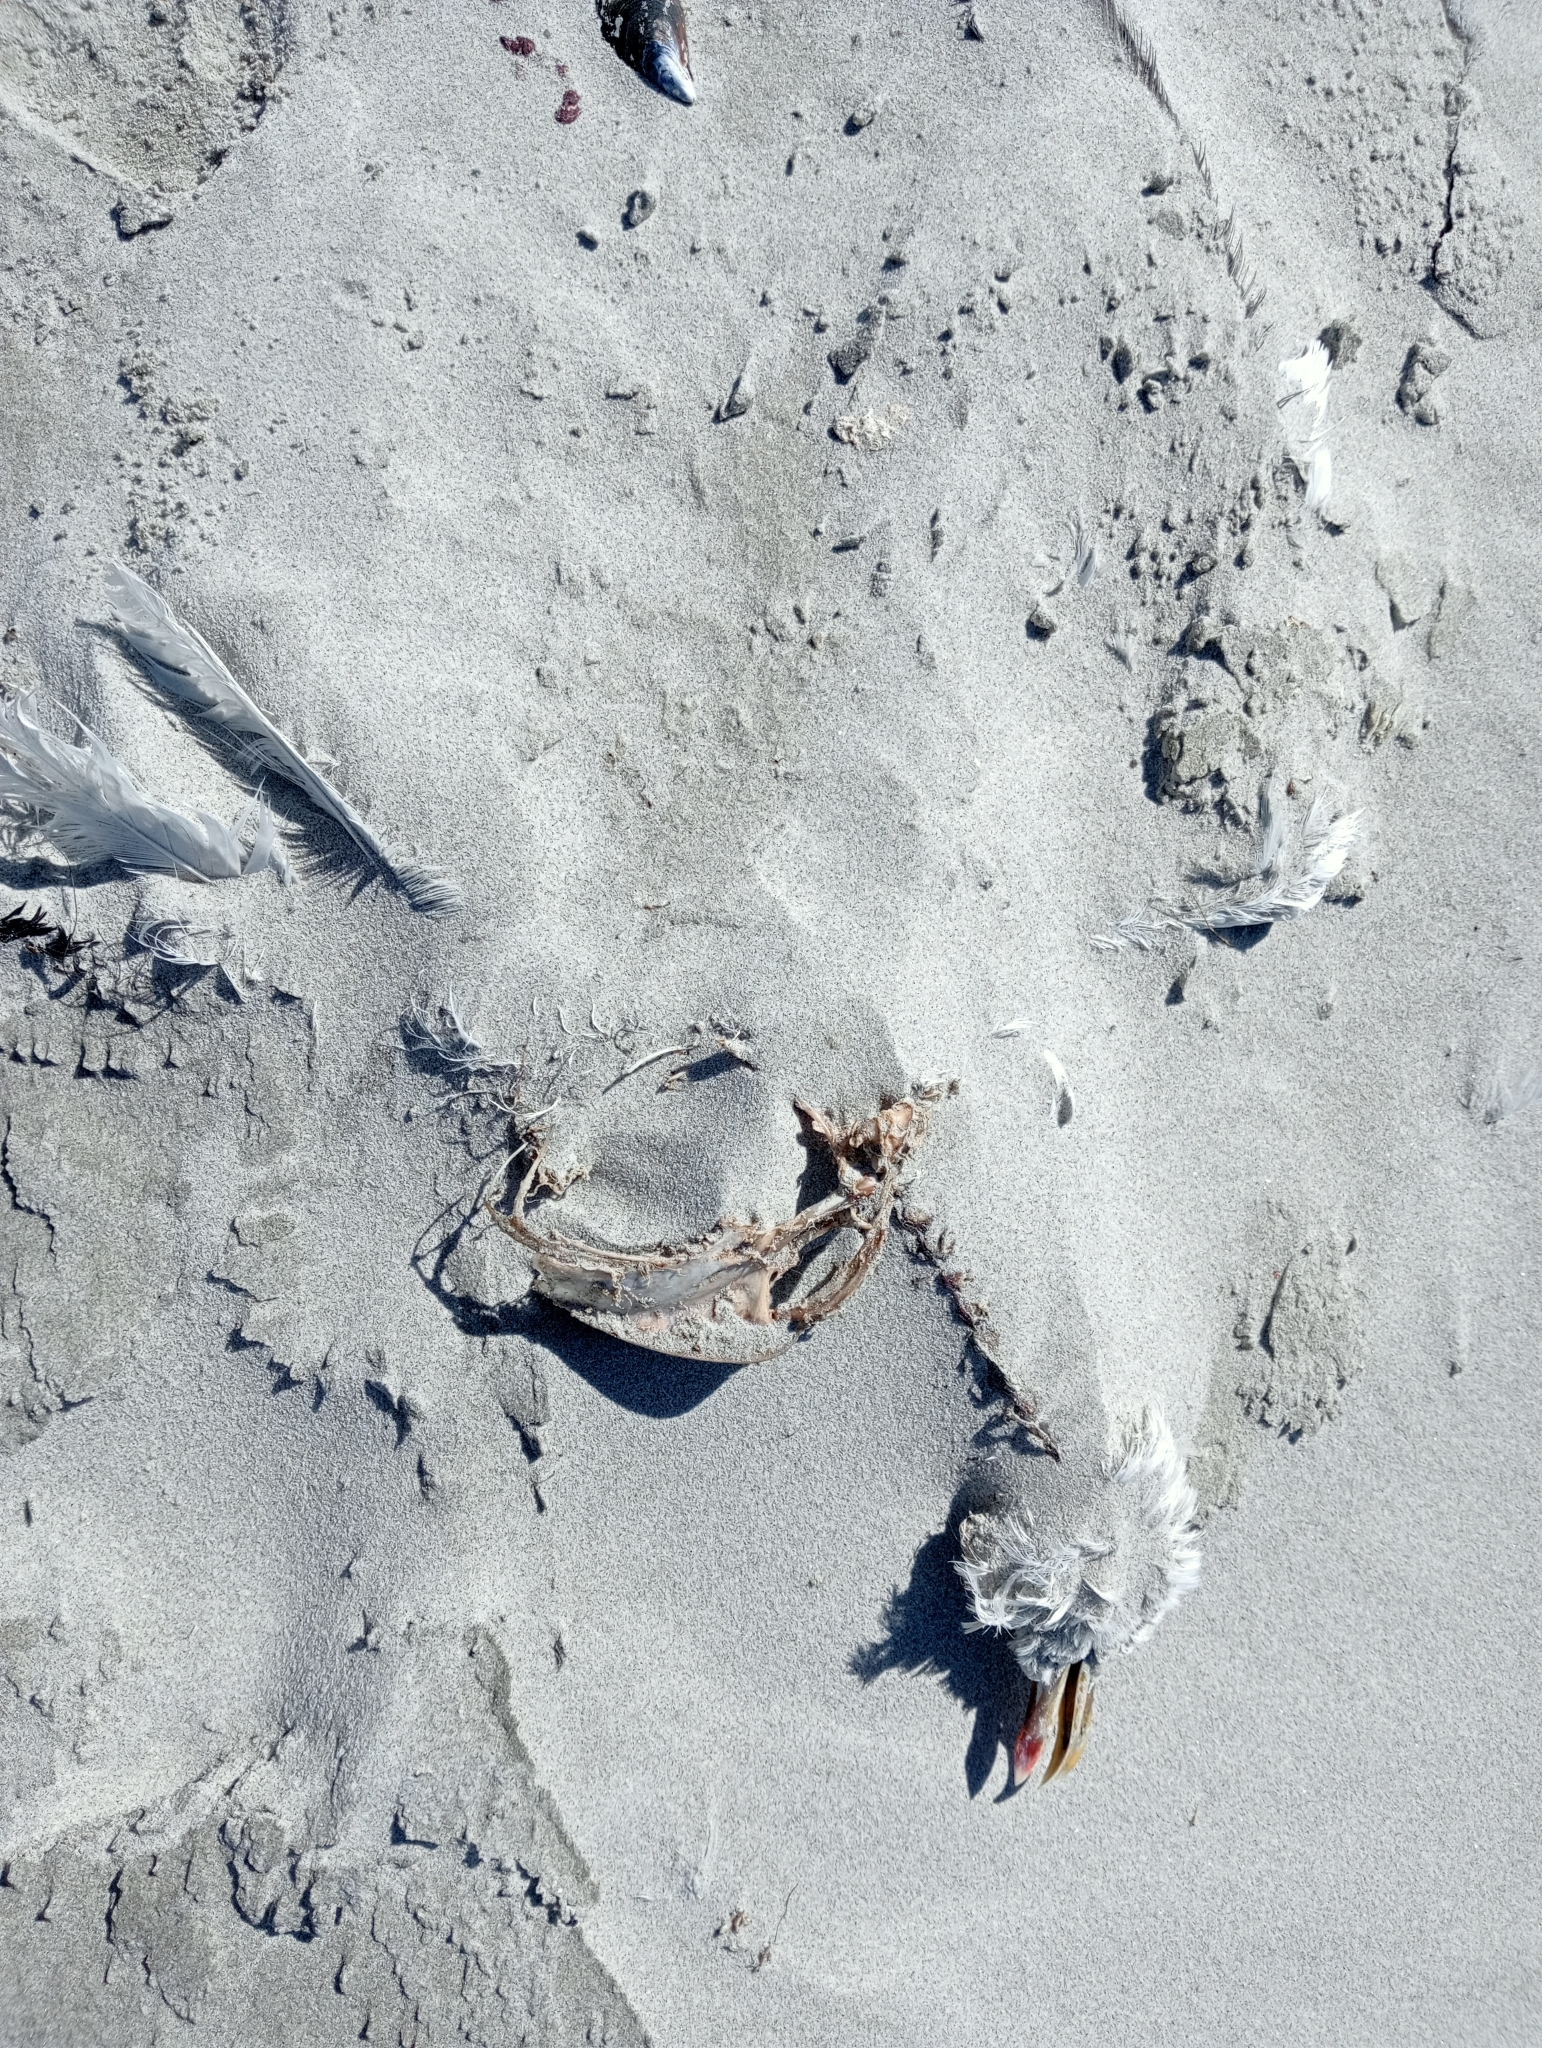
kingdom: Animalia
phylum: Chordata
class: Aves
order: Charadriiformes
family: Laridae
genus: Larus
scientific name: Larus dominicanus
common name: Kelp gull
